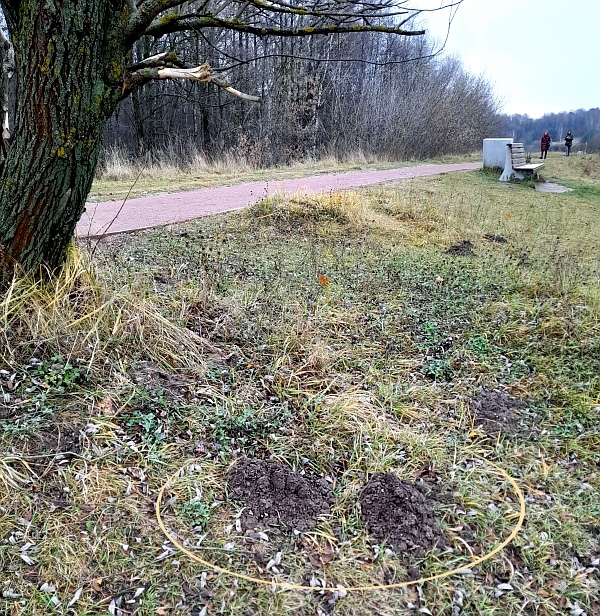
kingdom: Animalia
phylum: Chordata
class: Mammalia
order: Soricomorpha
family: Talpidae
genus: Talpa
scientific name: Talpa europaea
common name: European mole
